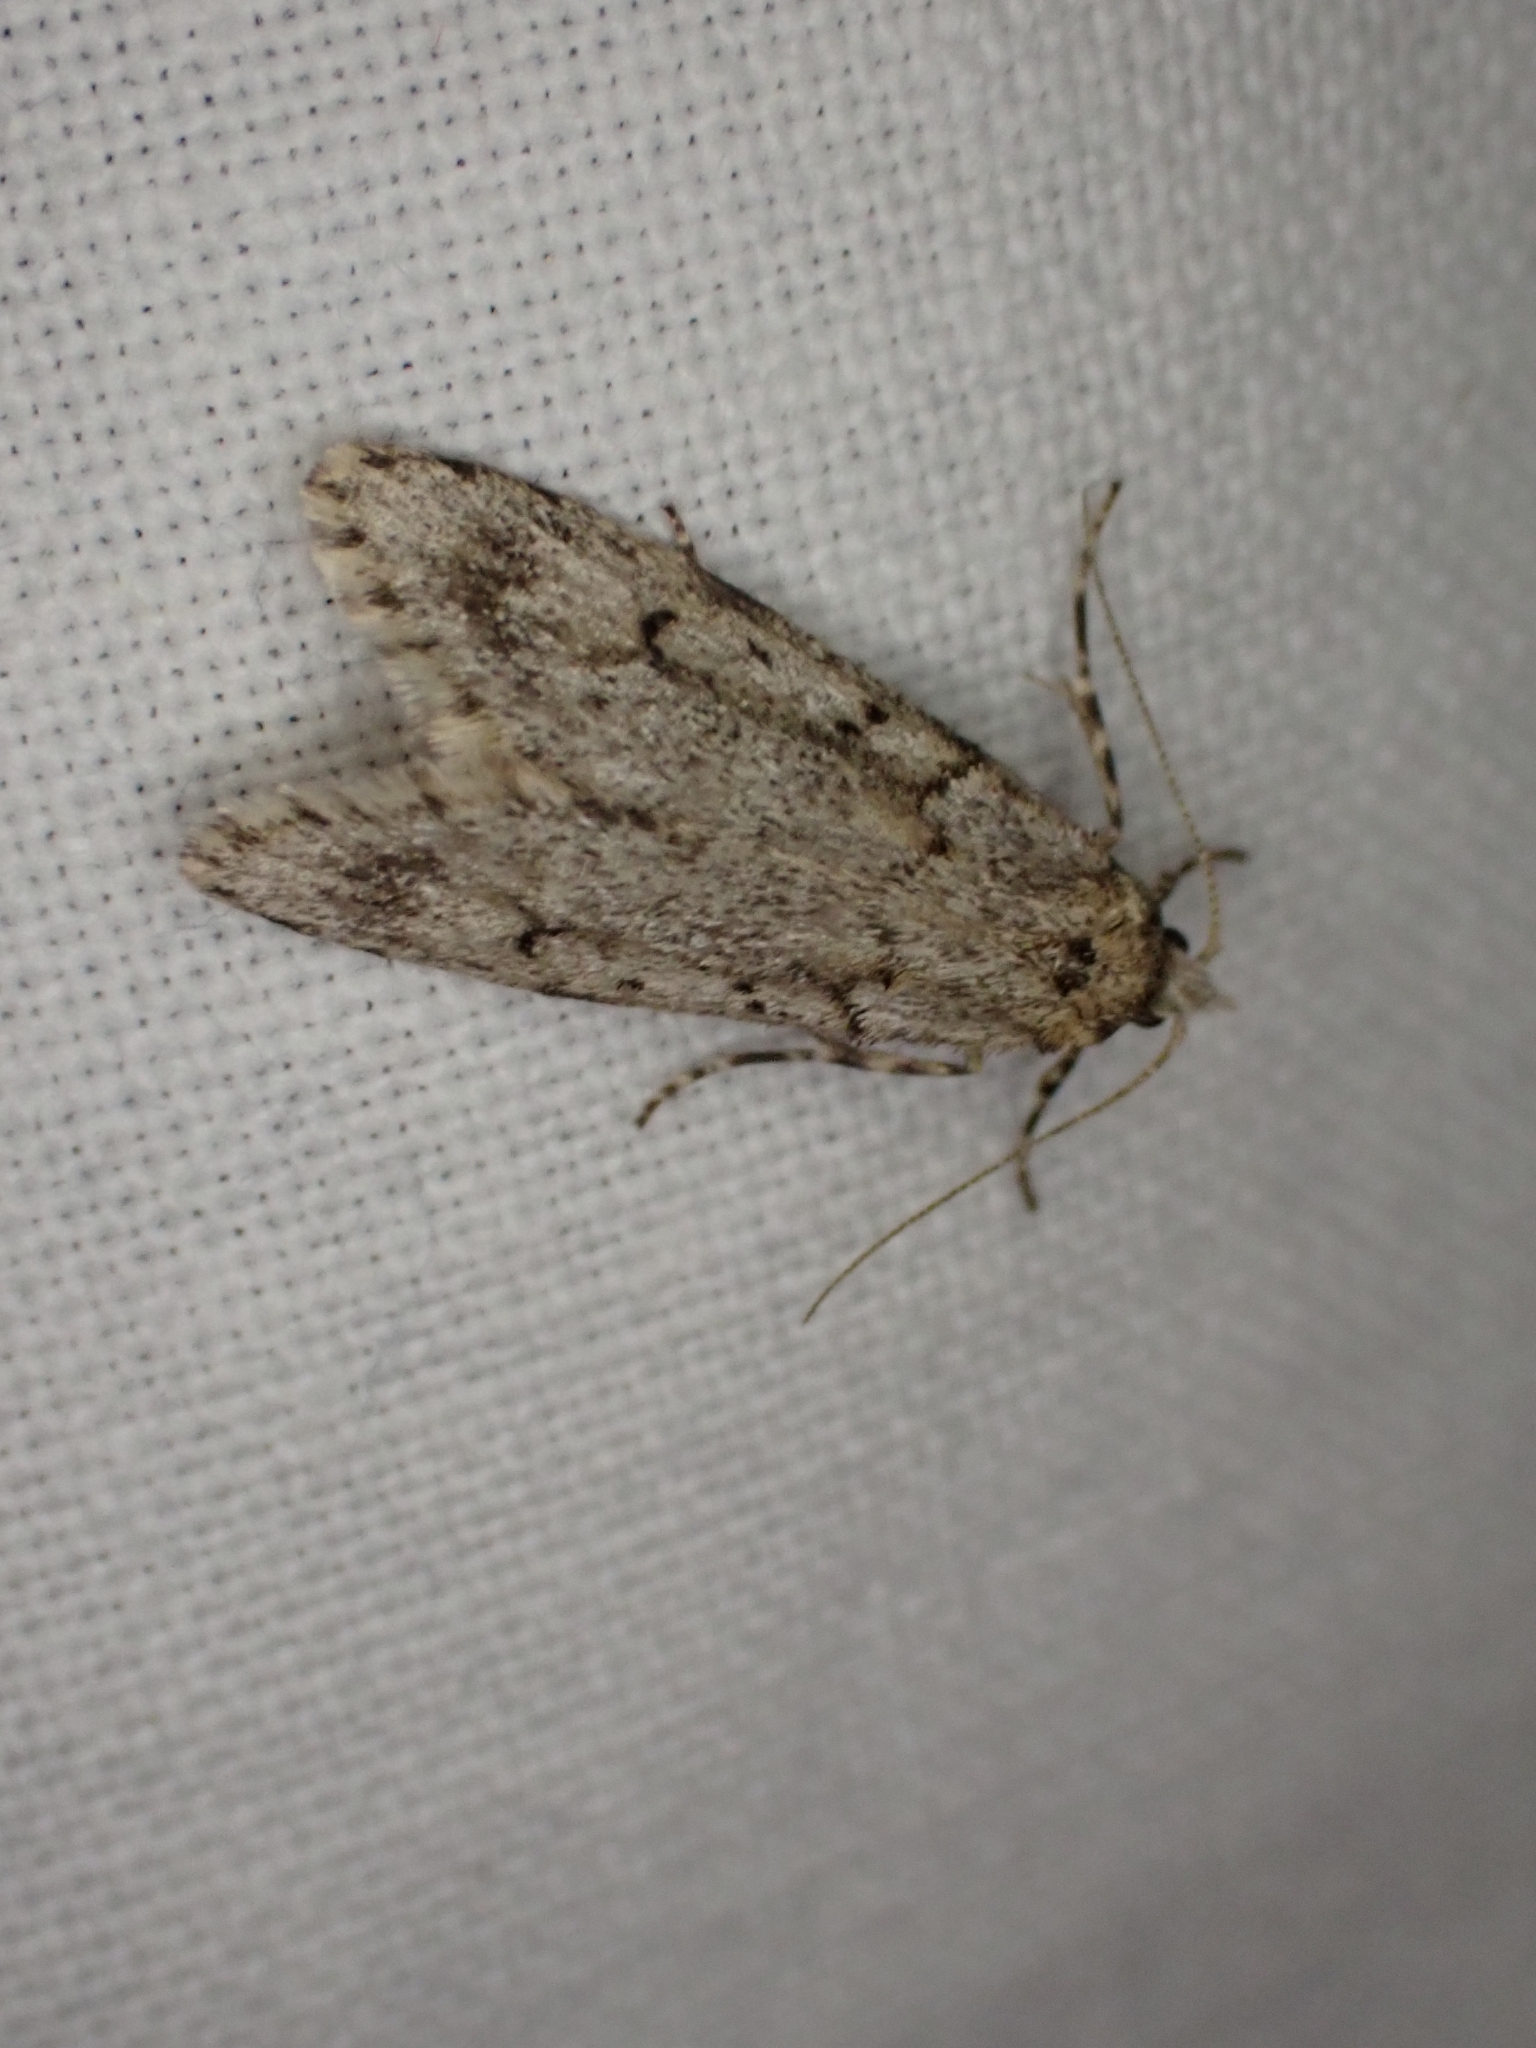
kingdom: Animalia
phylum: Arthropoda
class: Insecta
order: Lepidoptera
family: Lypusidae
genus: Diurnea
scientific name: Diurnea fagella
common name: March tubic
